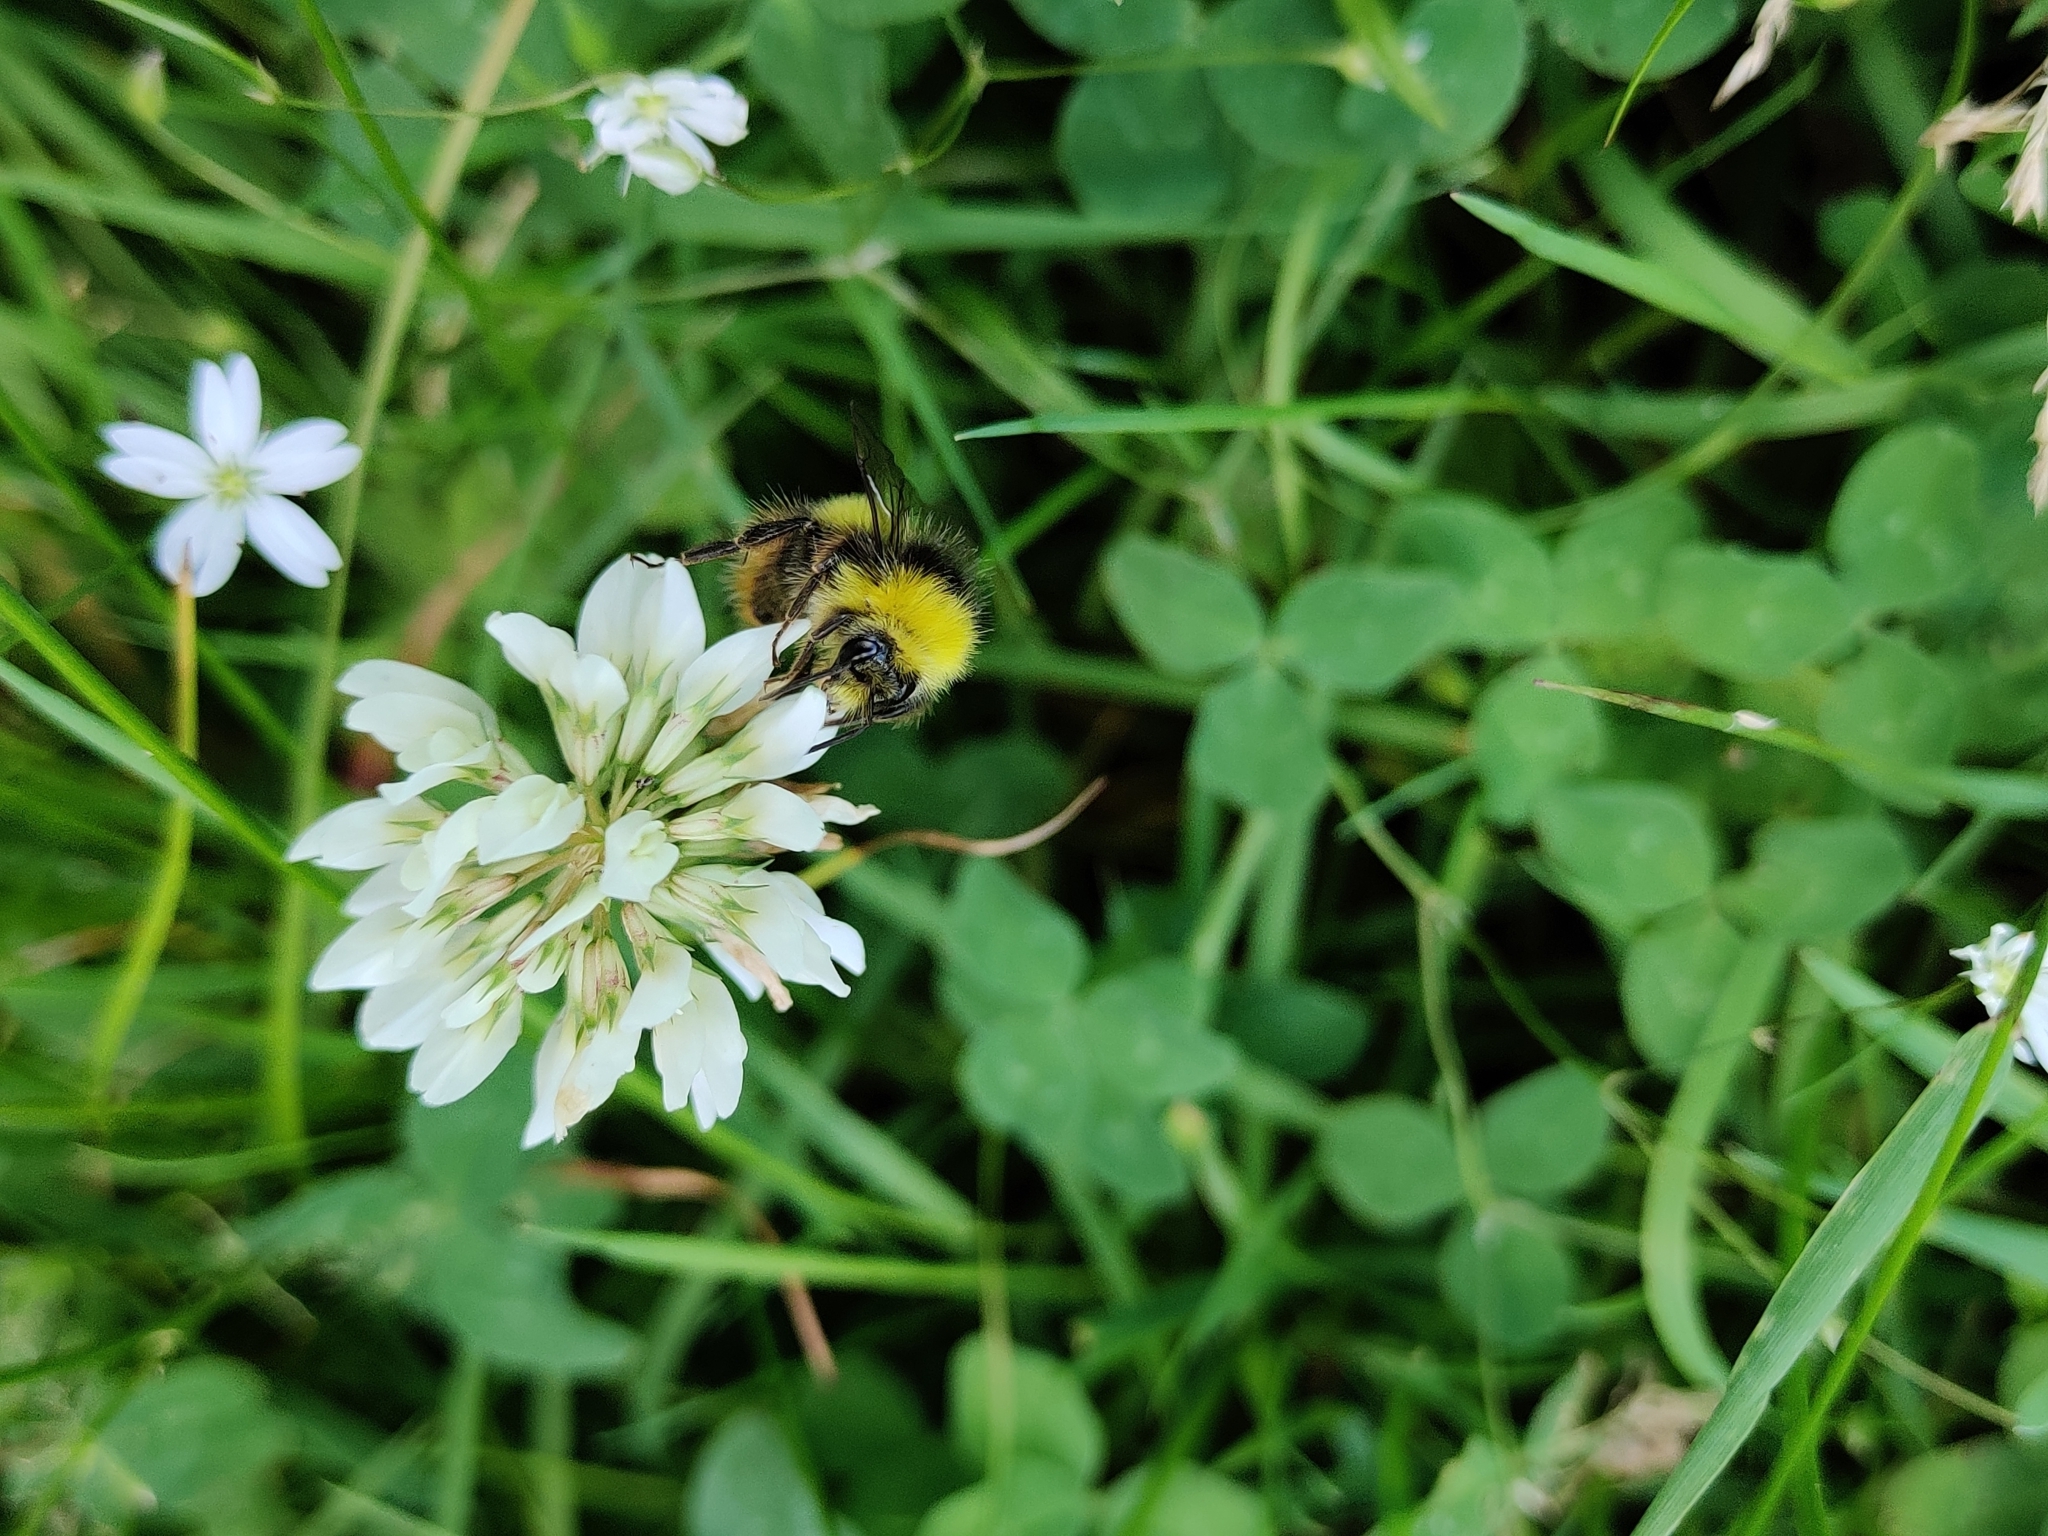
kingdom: Animalia
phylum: Arthropoda
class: Insecta
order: Hymenoptera
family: Apidae
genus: Bombus
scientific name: Bombus pratorum
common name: Early humble-bee
